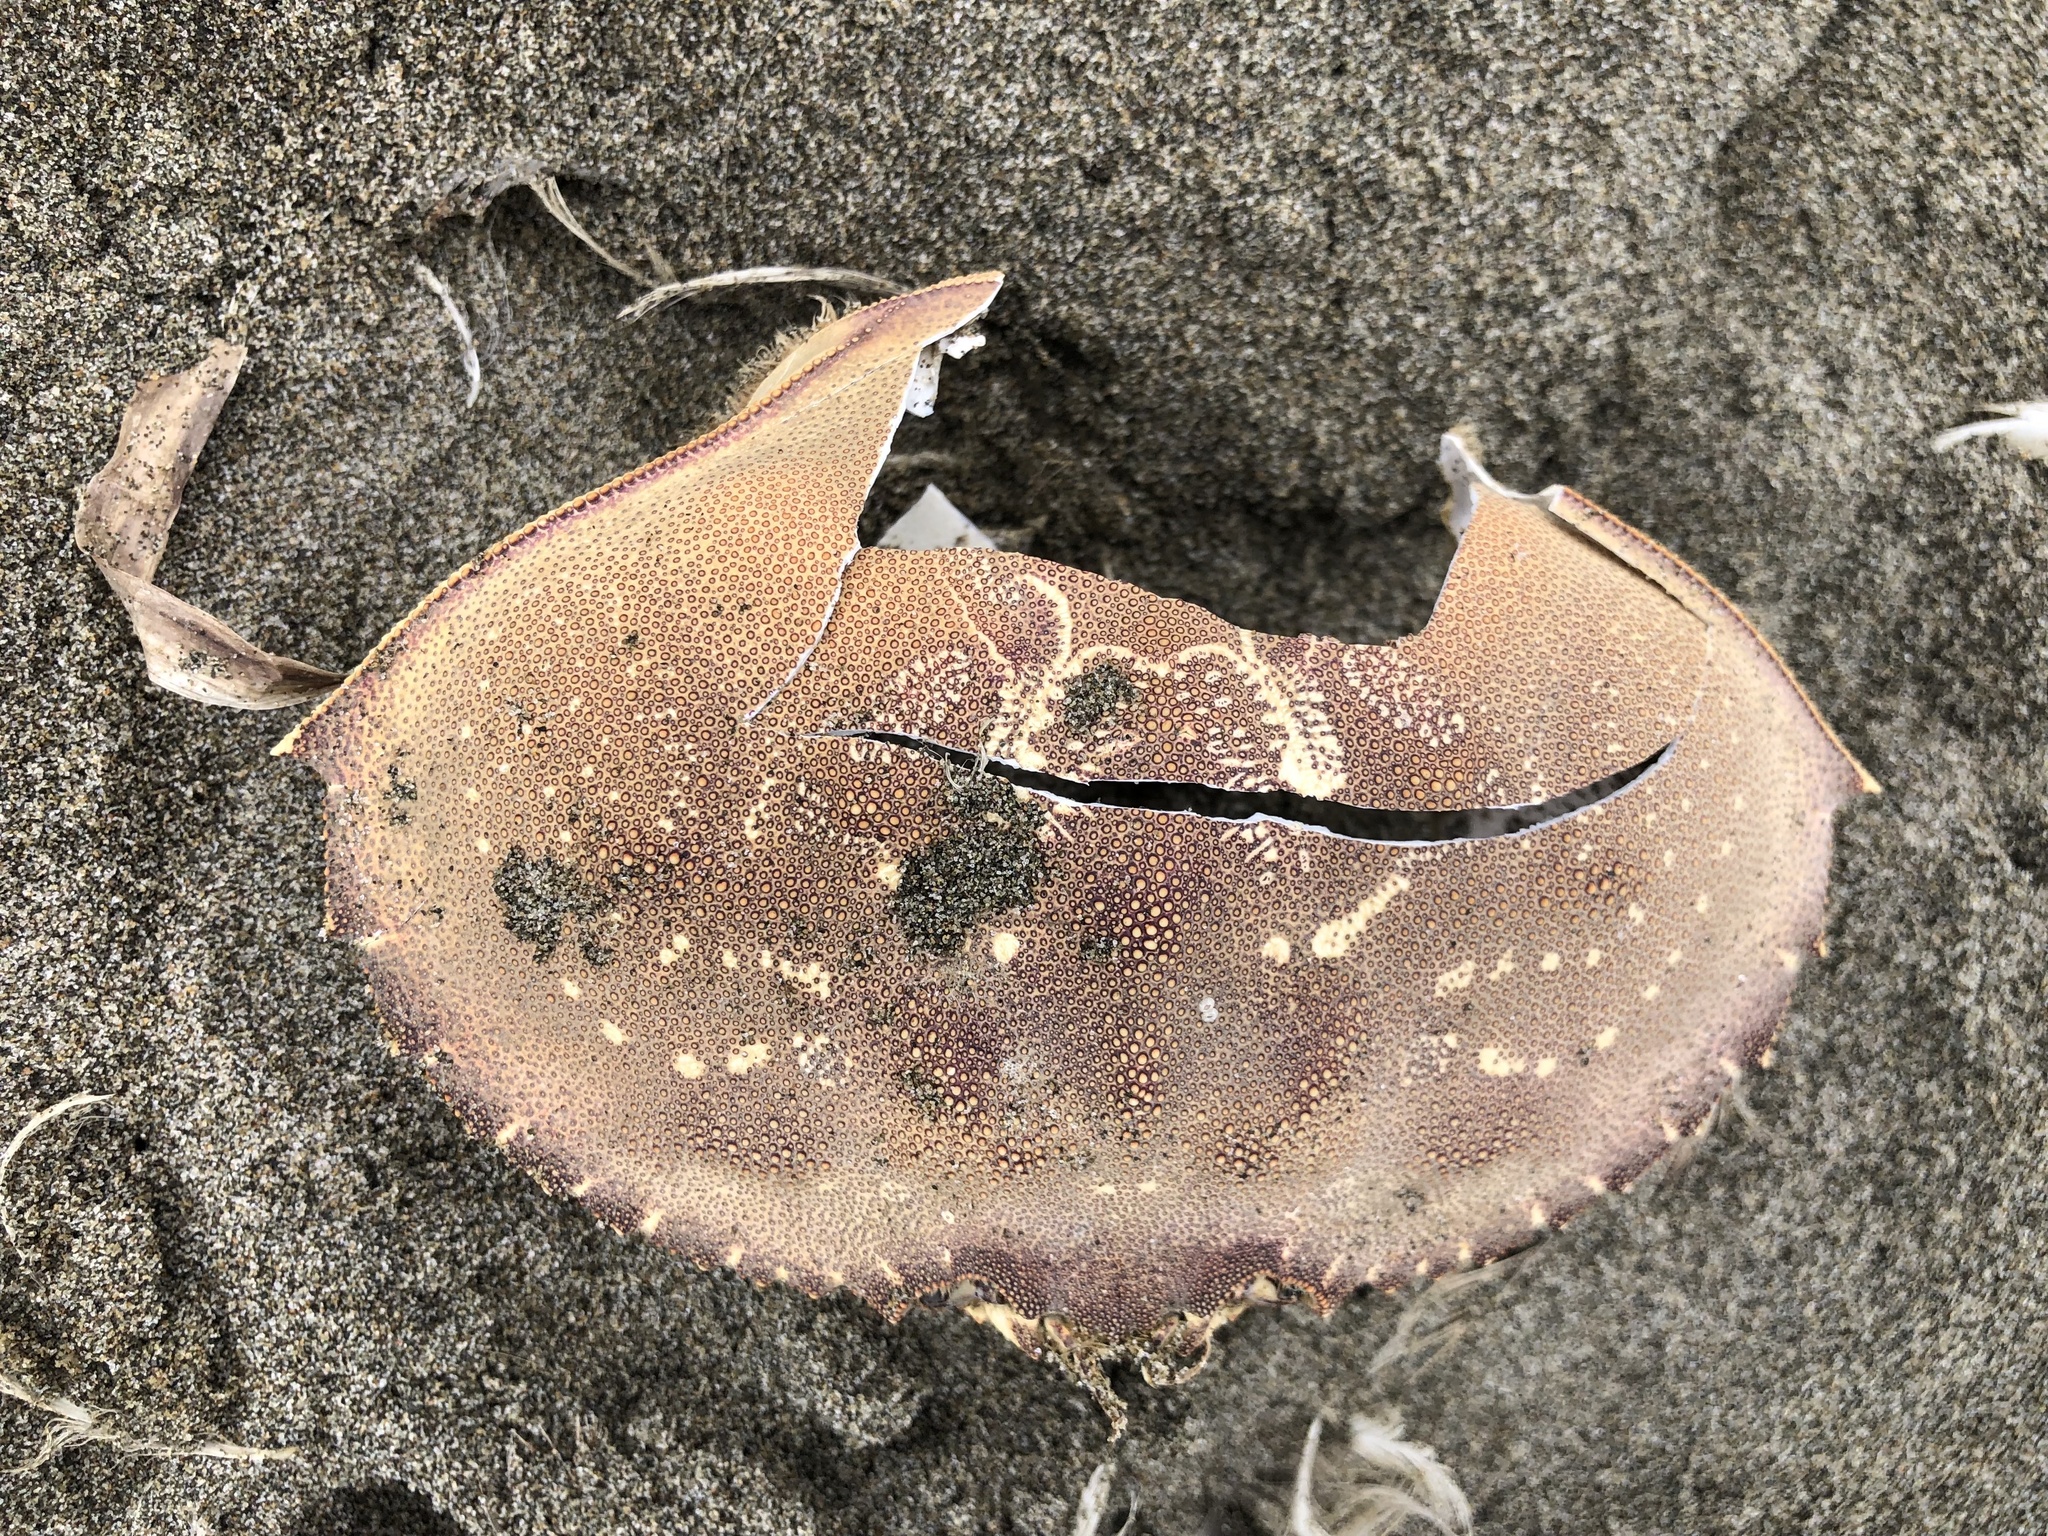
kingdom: Animalia
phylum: Arthropoda
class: Malacostraca
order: Decapoda
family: Cancridae
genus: Metacarcinus
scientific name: Metacarcinus magister
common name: Californian crab
